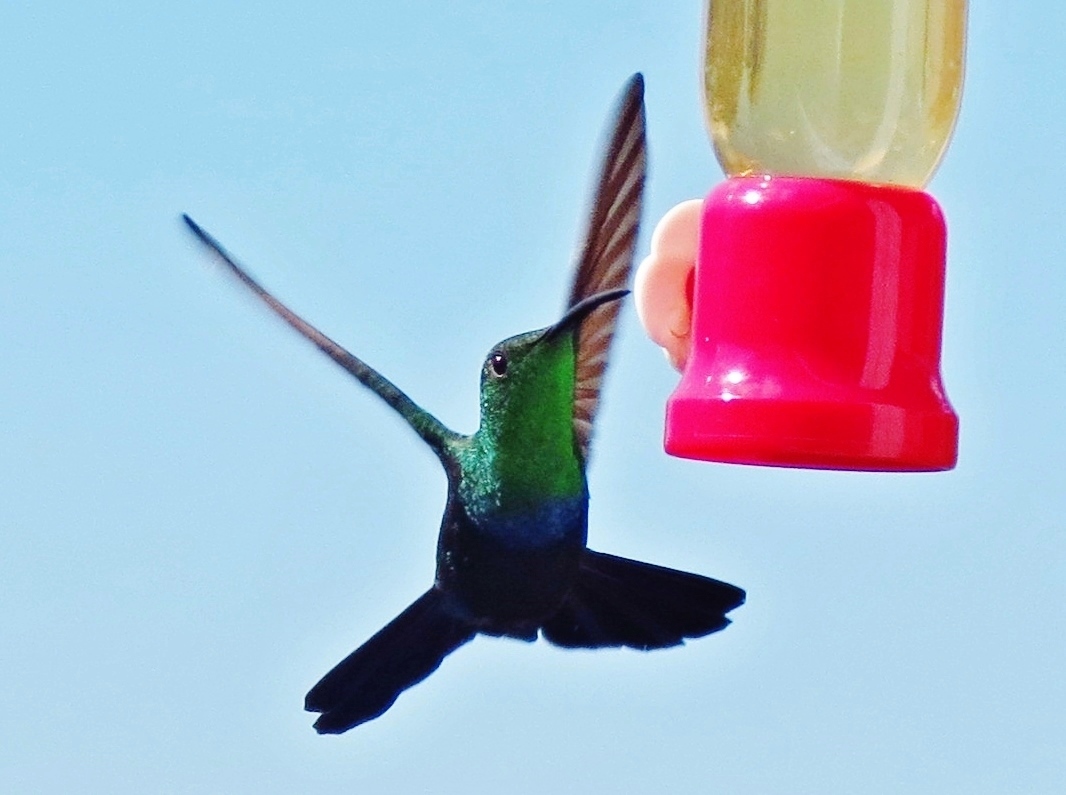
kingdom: Animalia
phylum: Chordata
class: Aves
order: Apodiformes
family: Trochilidae
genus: Eulampis
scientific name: Eulampis holosericeus
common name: Green-throated carib
